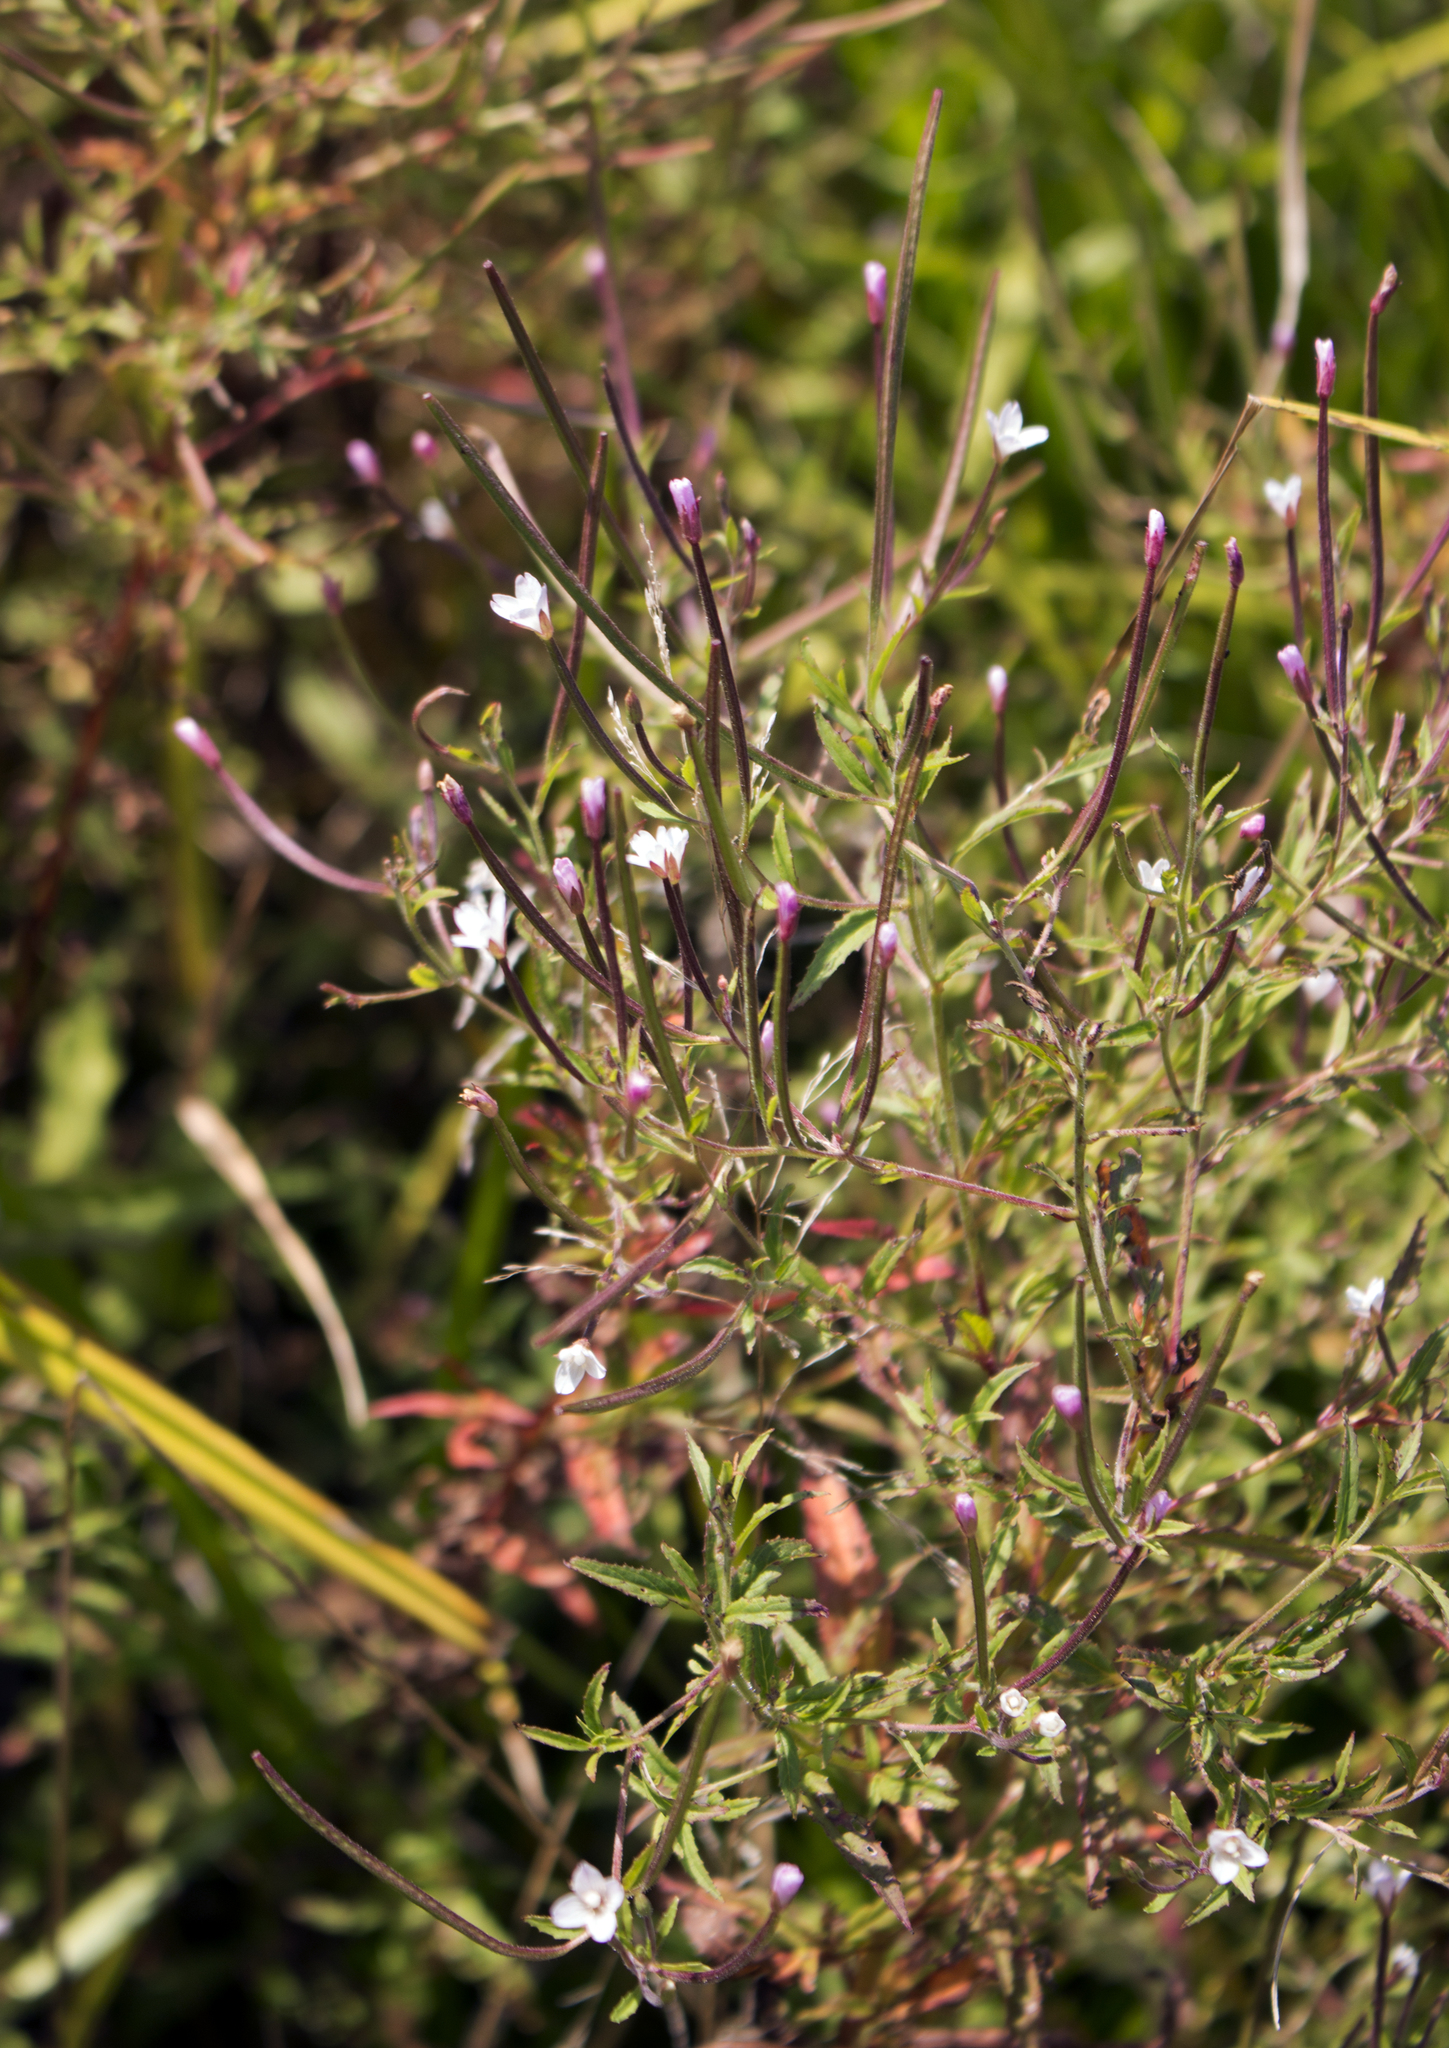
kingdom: Plantae
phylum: Tracheophyta
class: Magnoliopsida
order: Myrtales
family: Onagraceae
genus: Epilobium
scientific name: Epilobium coloratum
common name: Bronze willowherb
